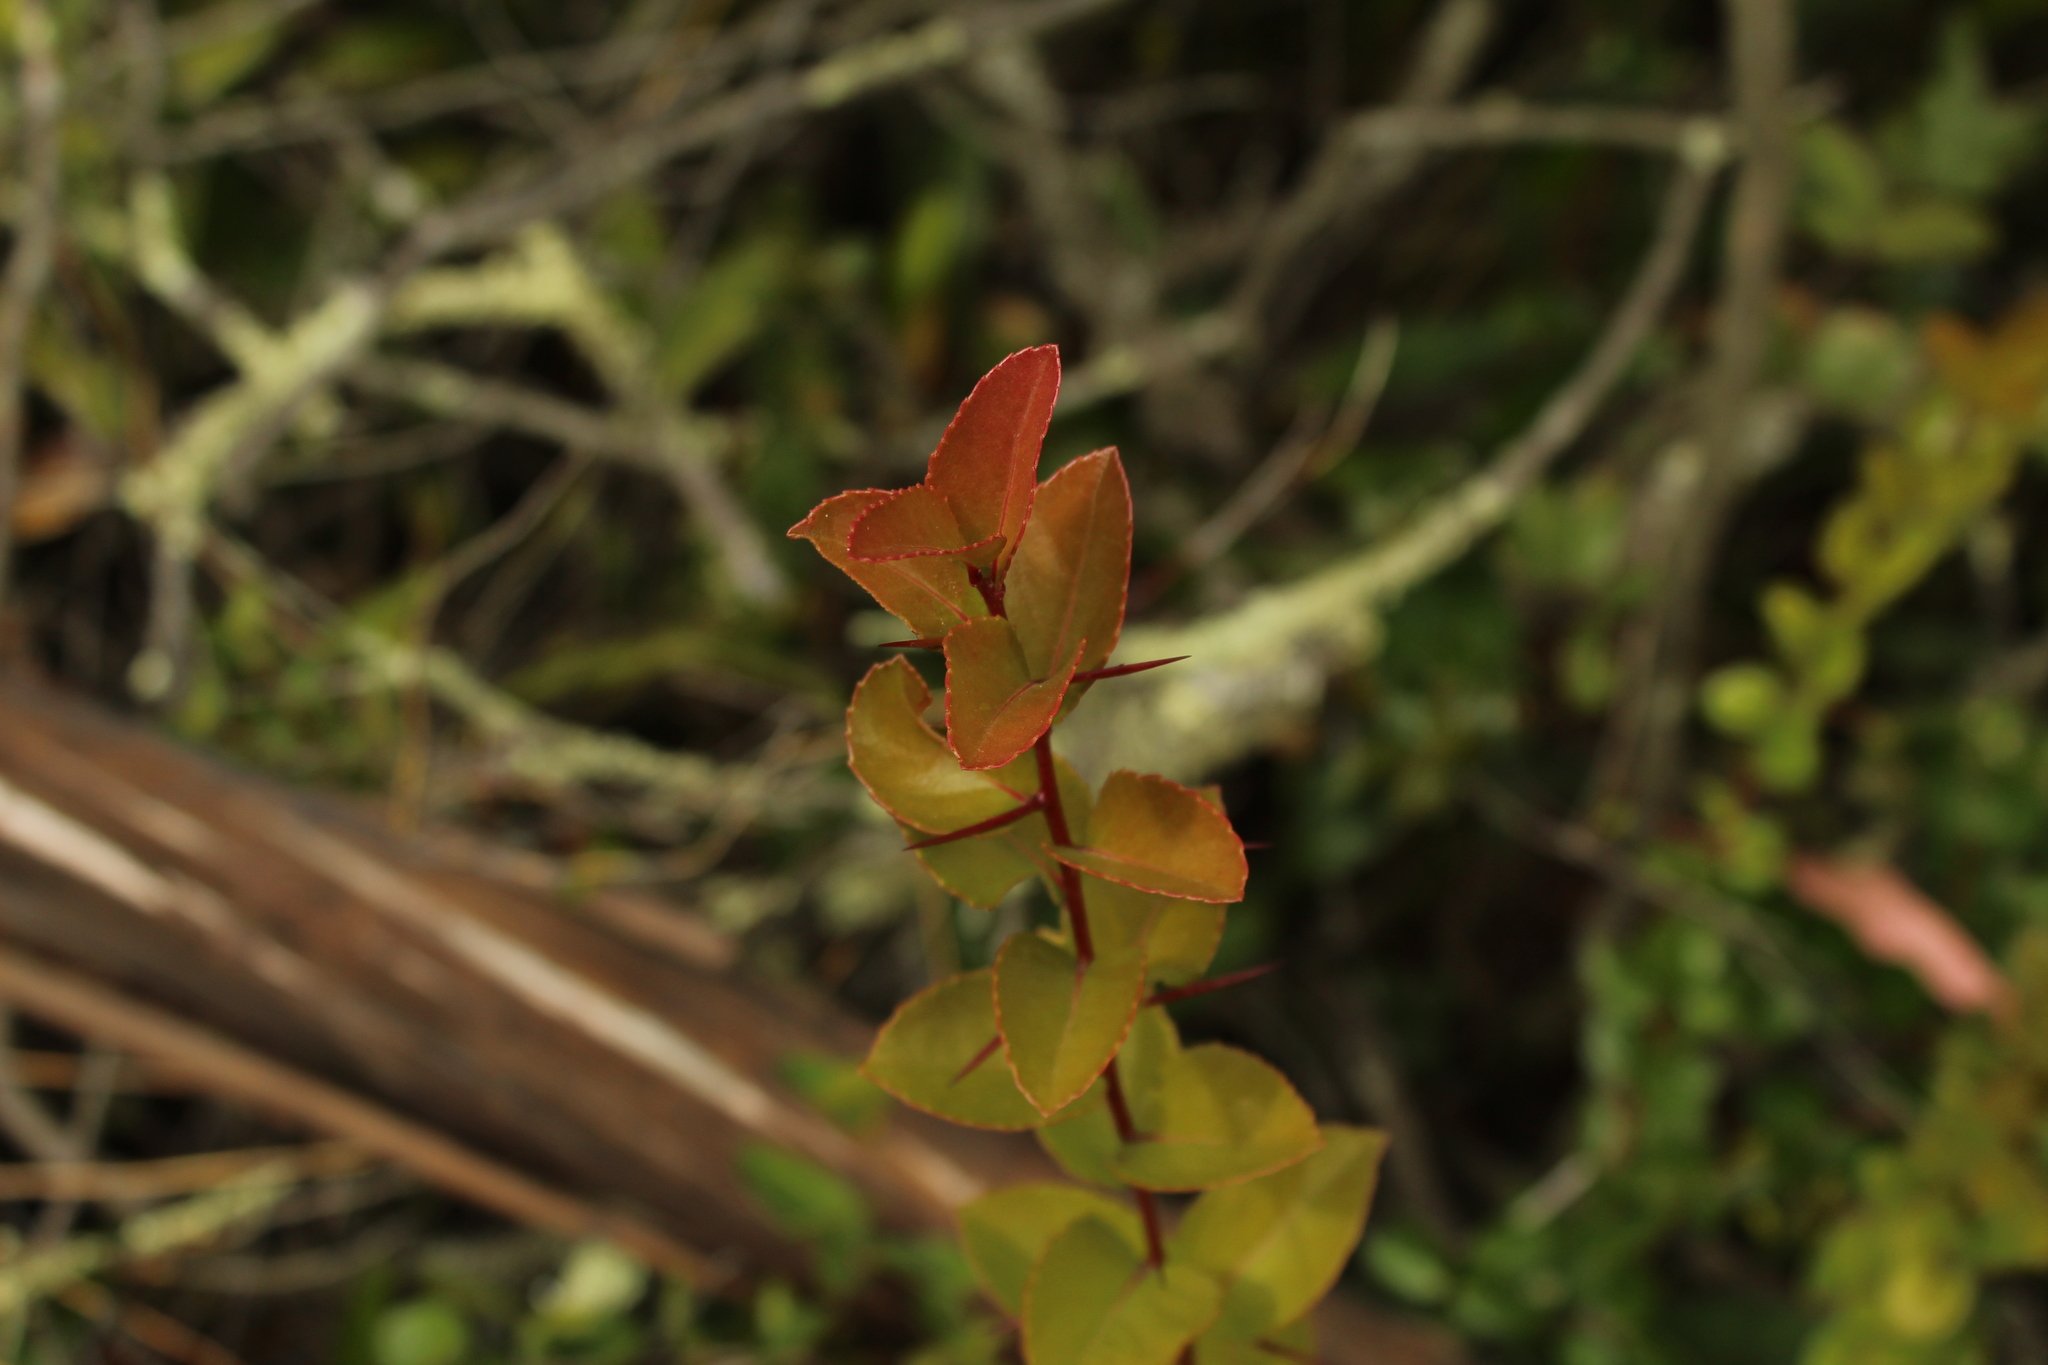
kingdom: Plantae
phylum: Tracheophyta
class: Magnoliopsida
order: Malpighiales
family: Salicaceae
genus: Xylosma
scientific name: Xylosma spiculifera
